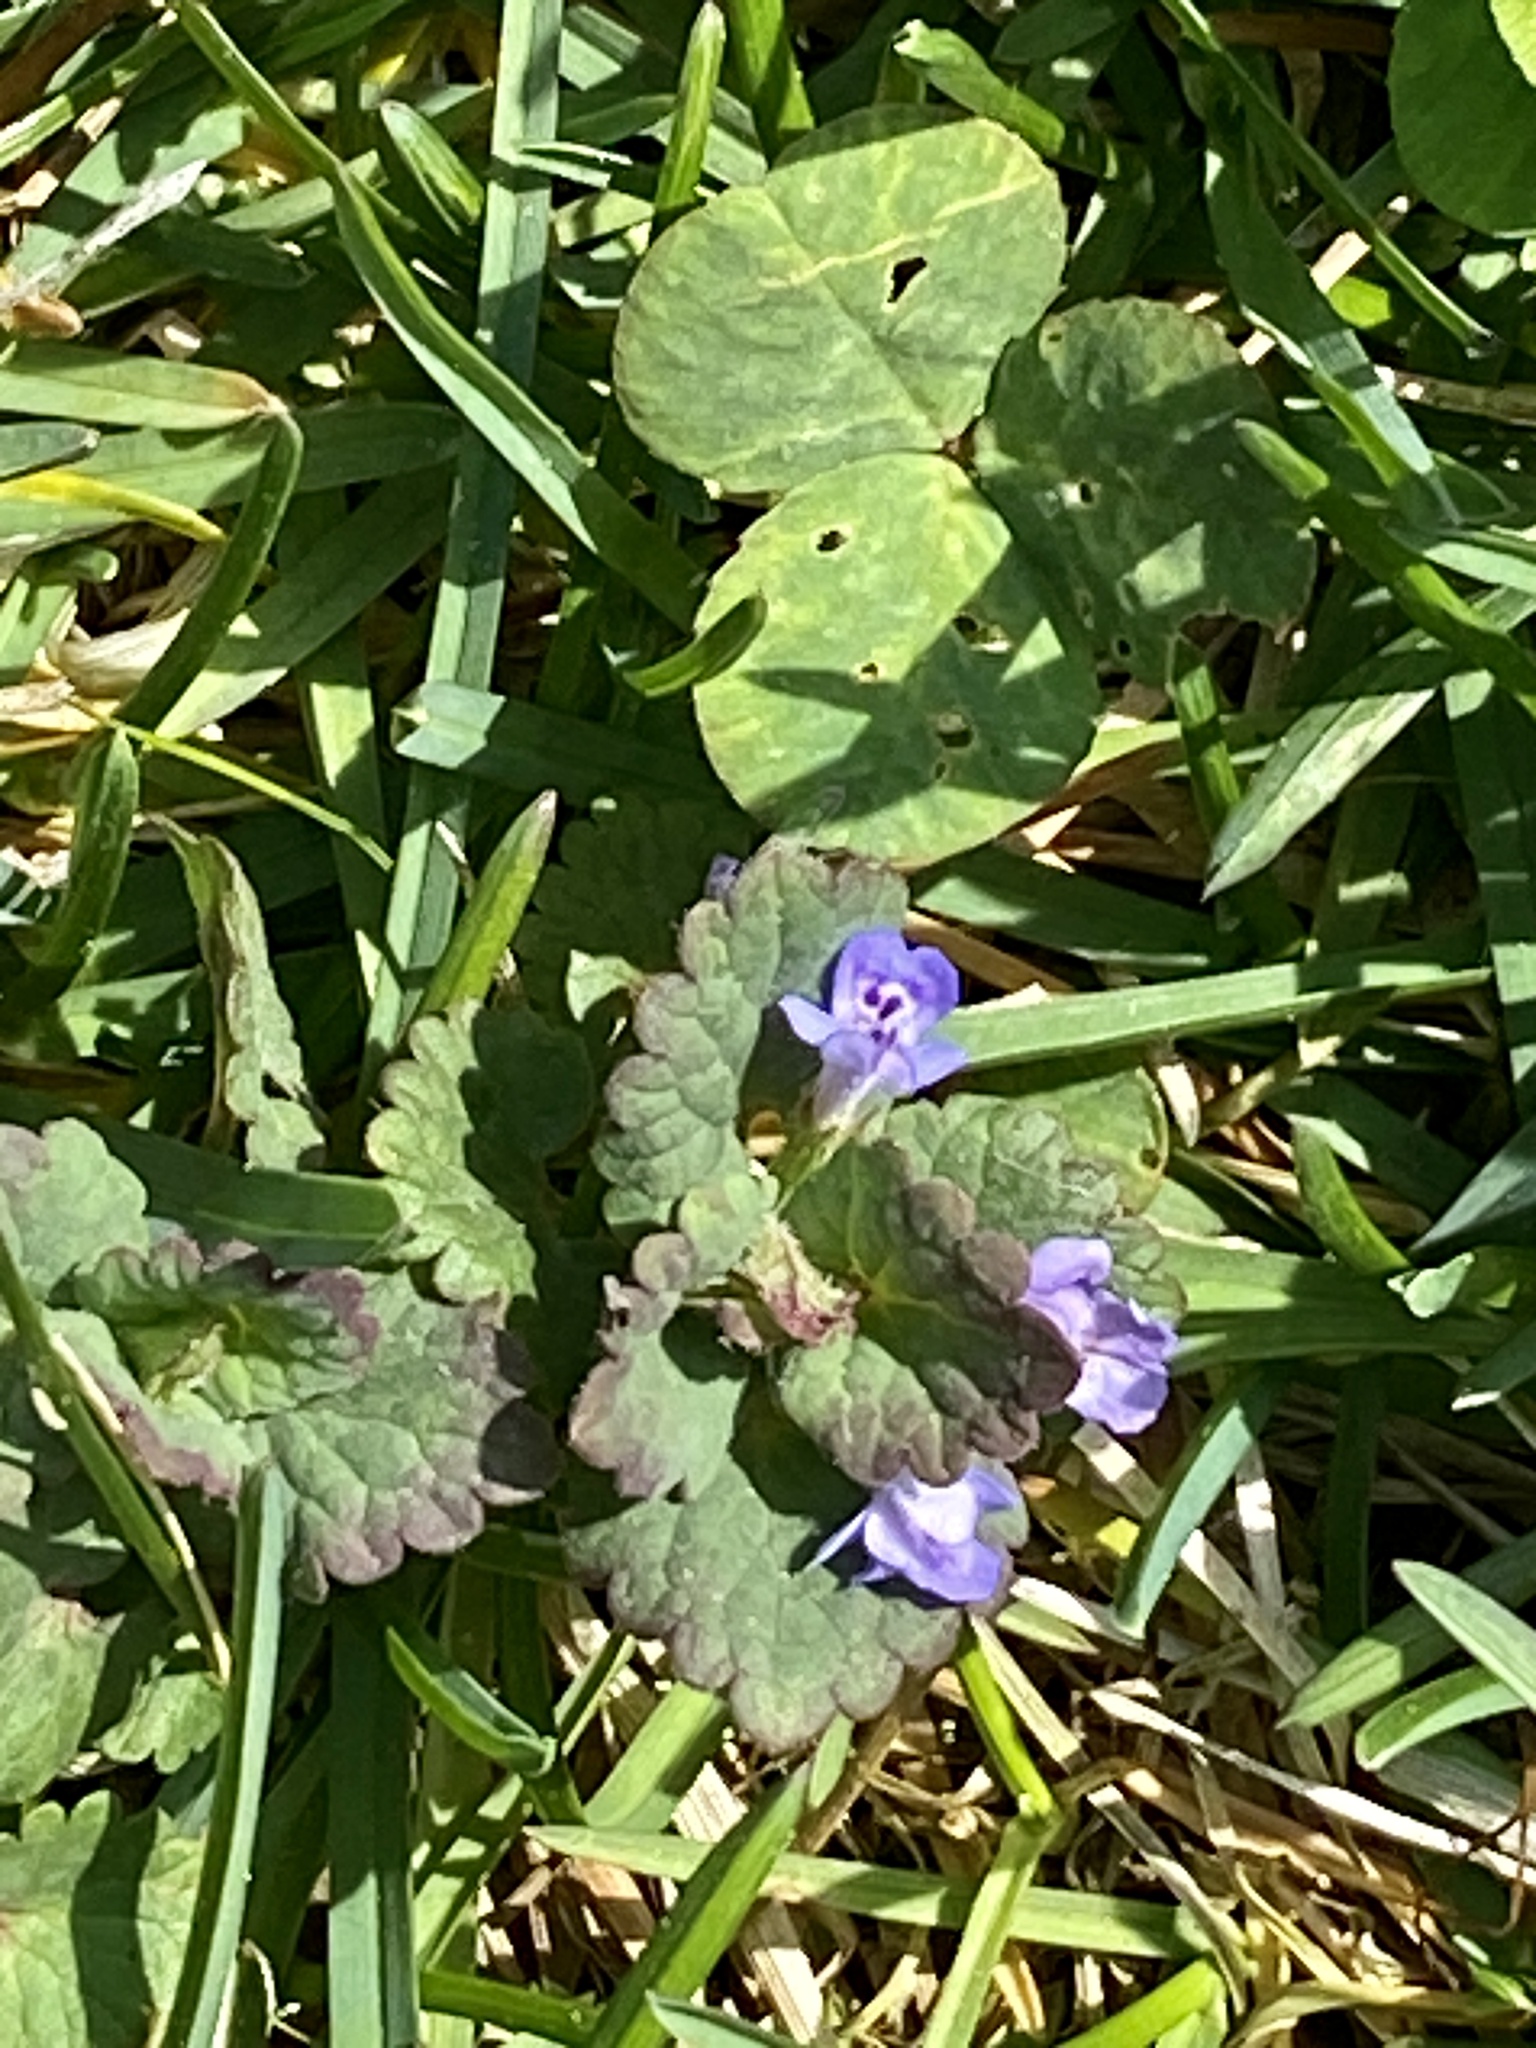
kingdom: Plantae
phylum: Tracheophyta
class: Magnoliopsida
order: Lamiales
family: Lamiaceae
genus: Glechoma
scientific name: Glechoma hederacea
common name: Ground ivy
